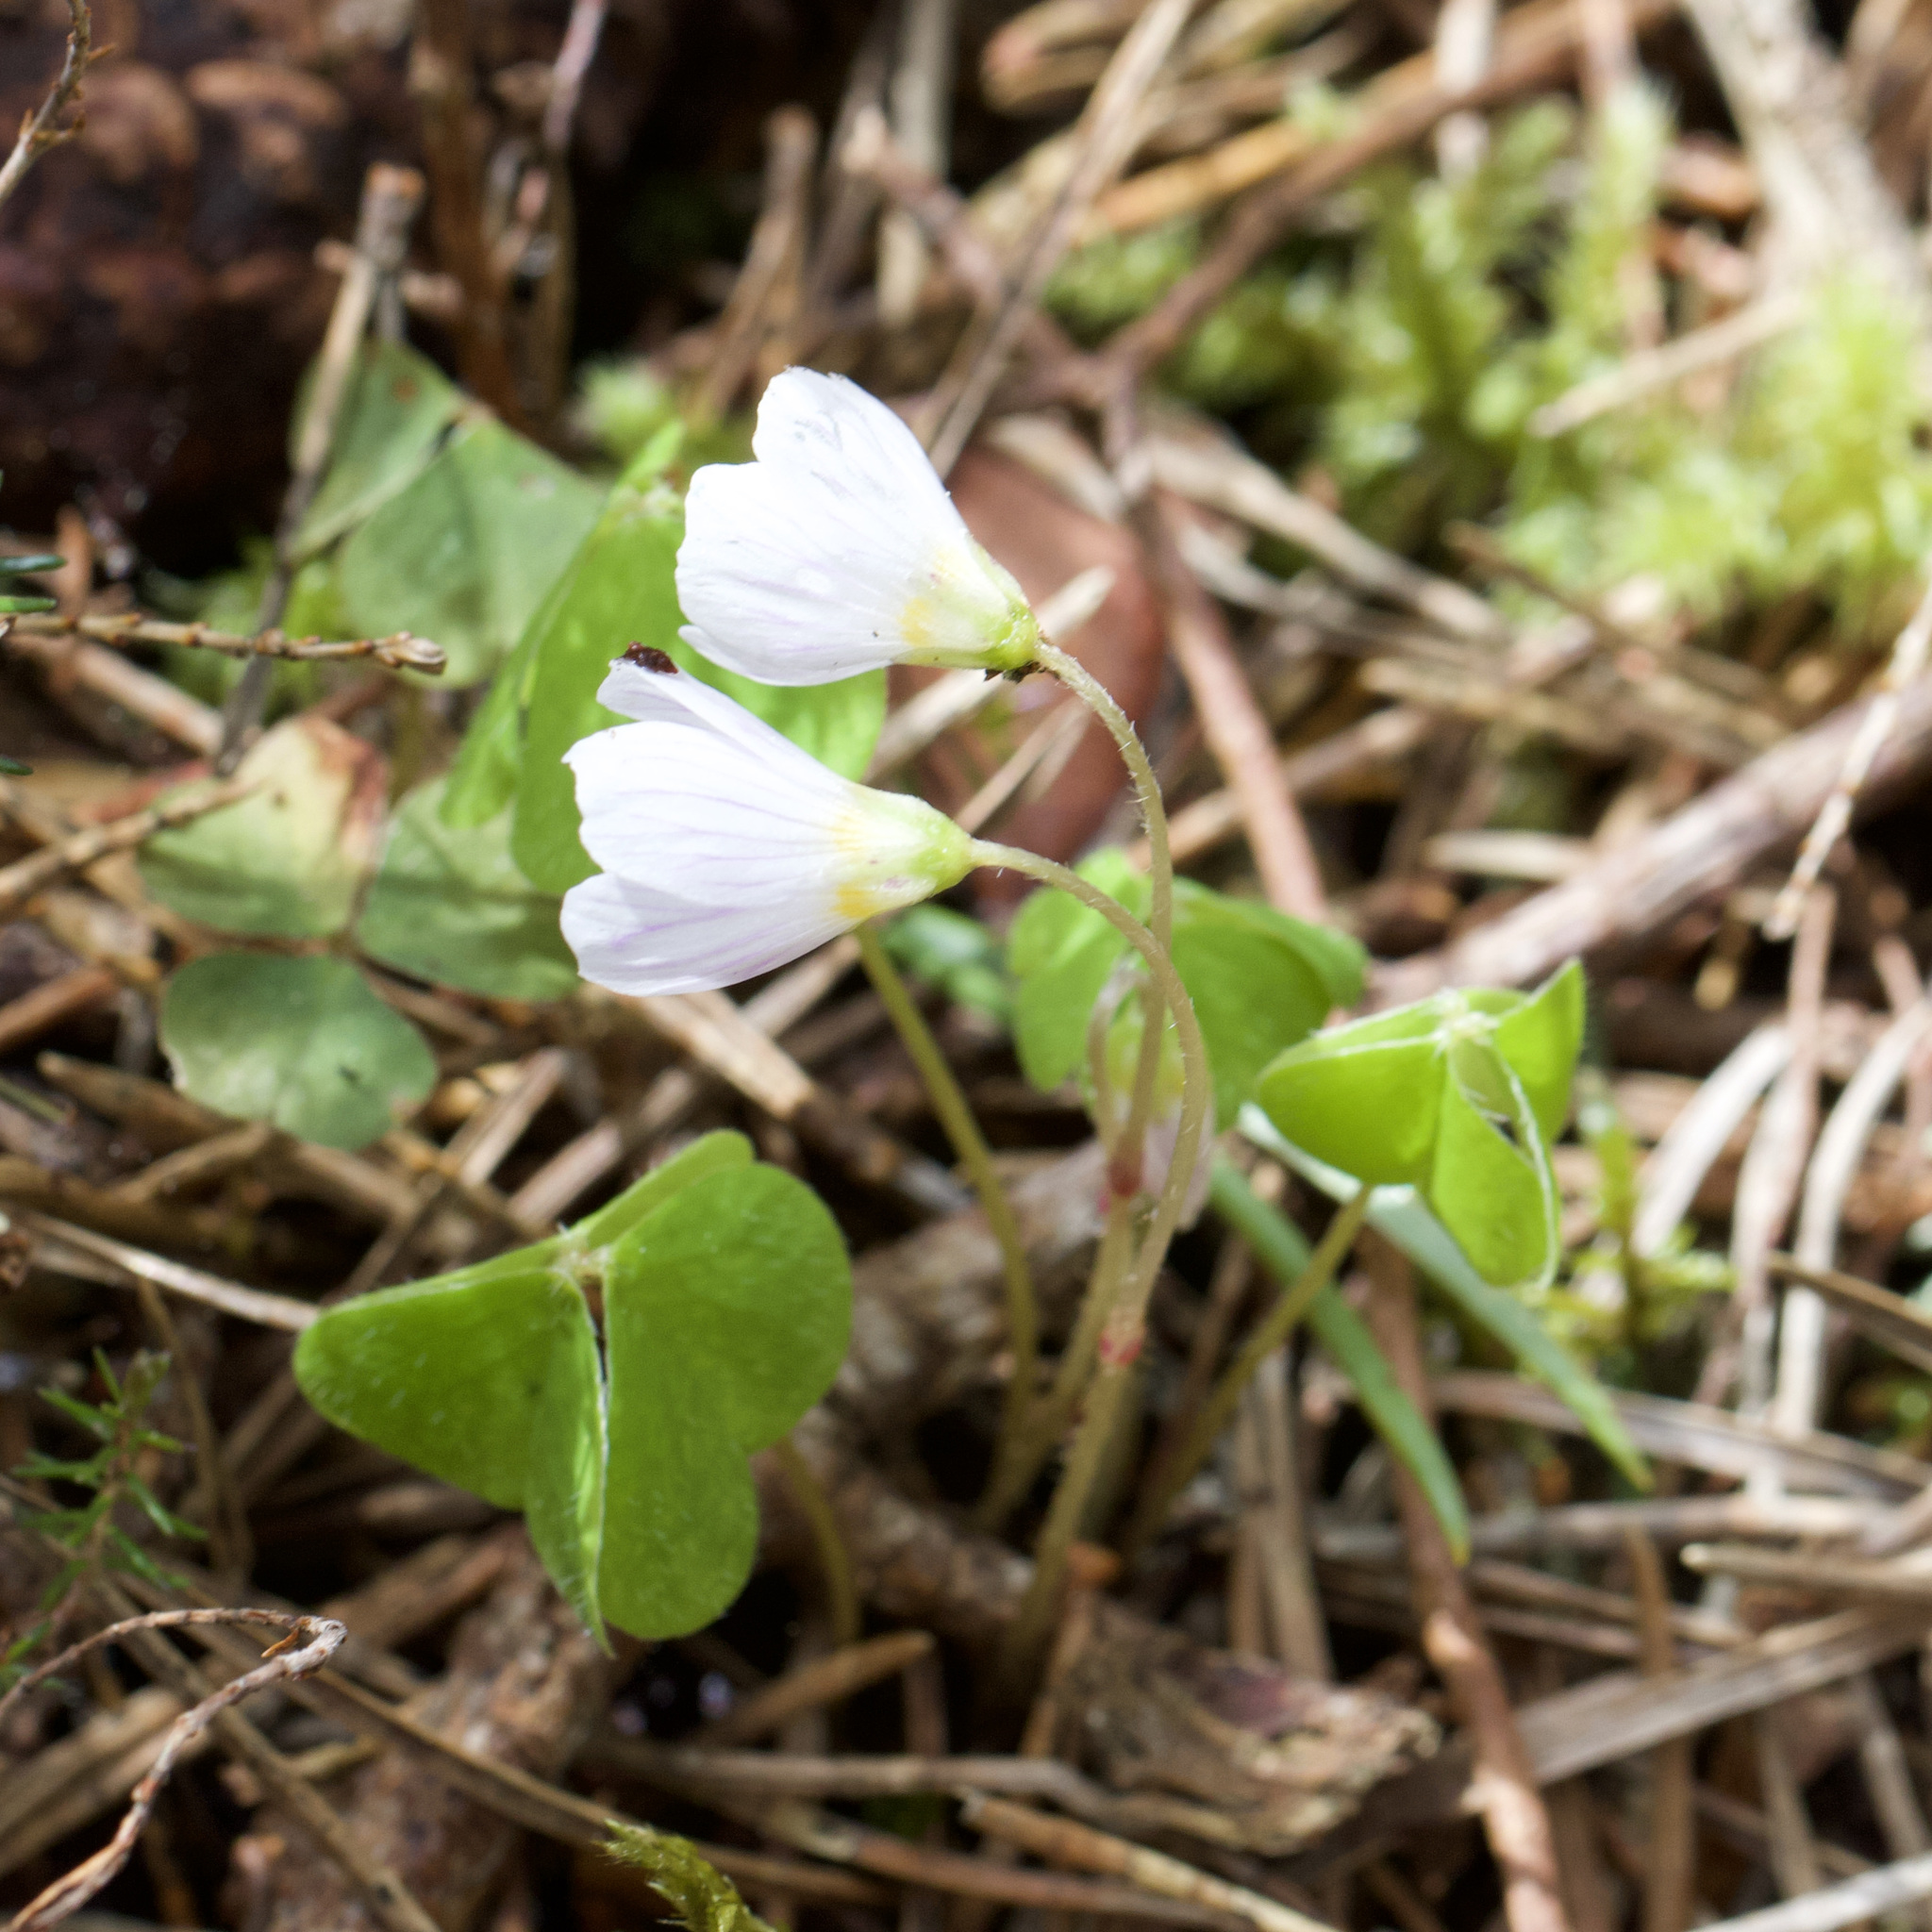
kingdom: Plantae
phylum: Tracheophyta
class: Magnoliopsida
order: Oxalidales
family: Oxalidaceae
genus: Oxalis
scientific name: Oxalis acetosella
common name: Wood-sorrel
